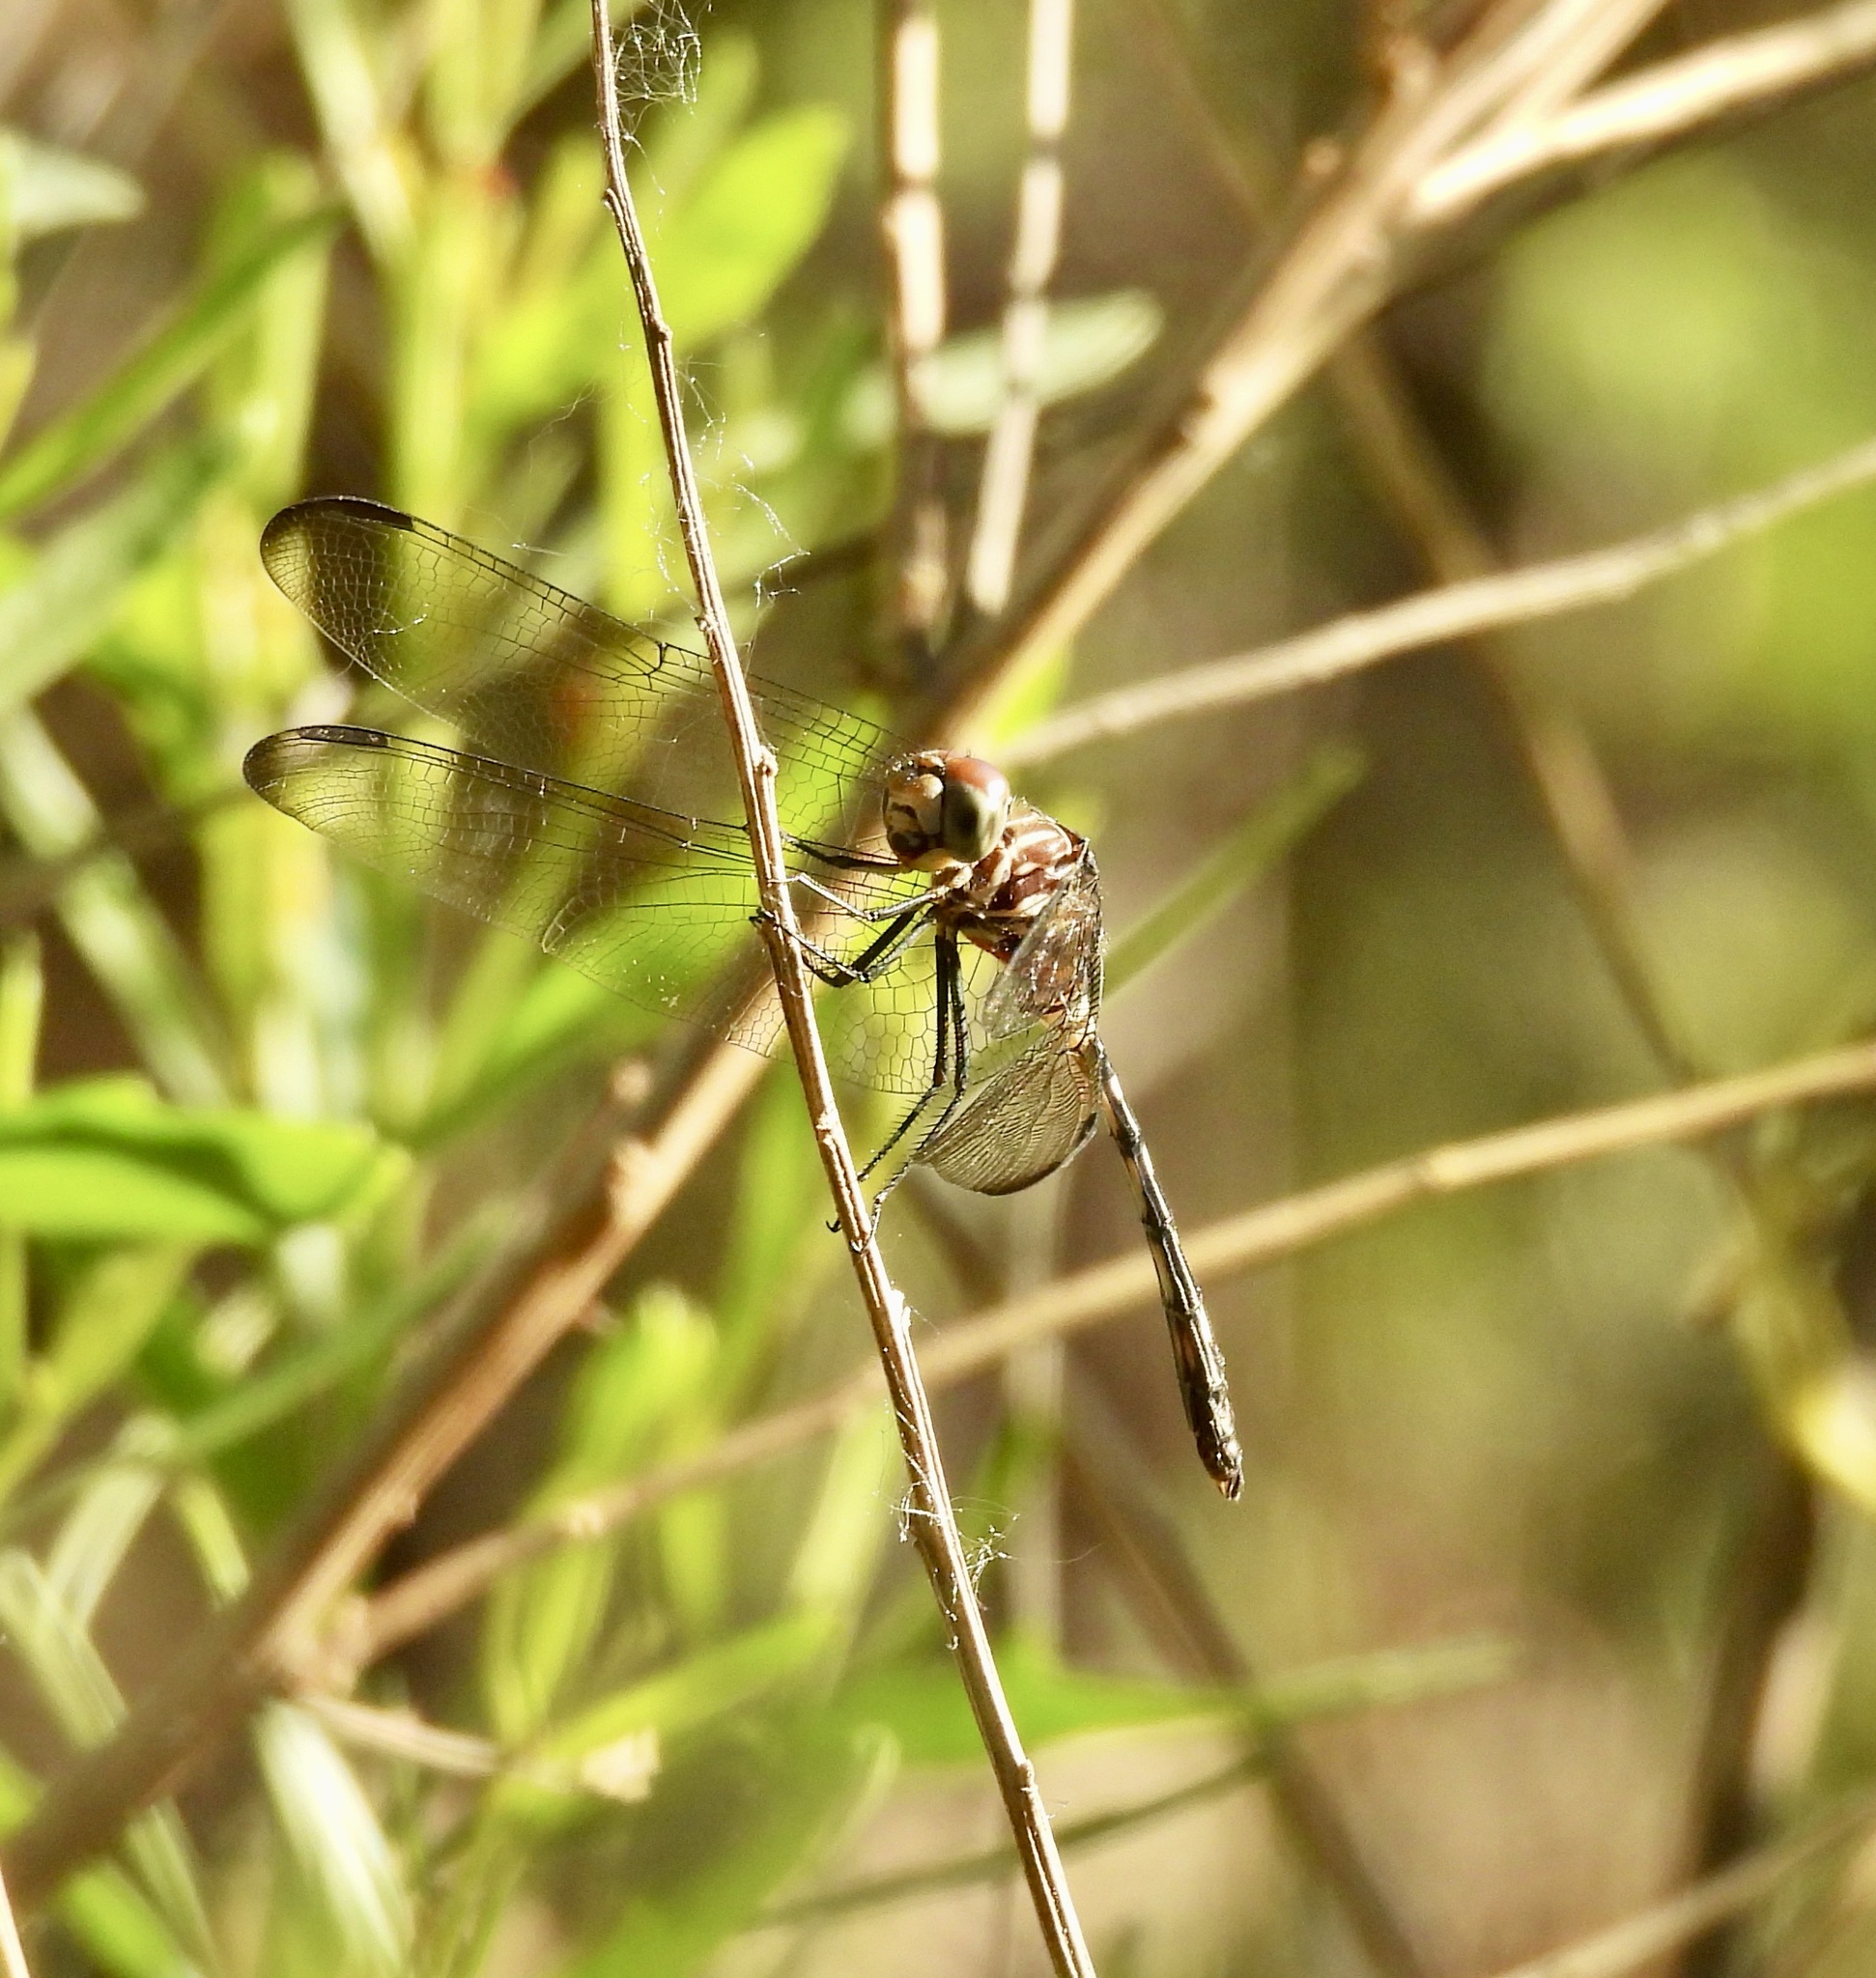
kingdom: Animalia
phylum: Arthropoda
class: Insecta
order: Odonata
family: Libellulidae
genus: Dythemis
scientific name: Dythemis velox
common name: Swift setwing
